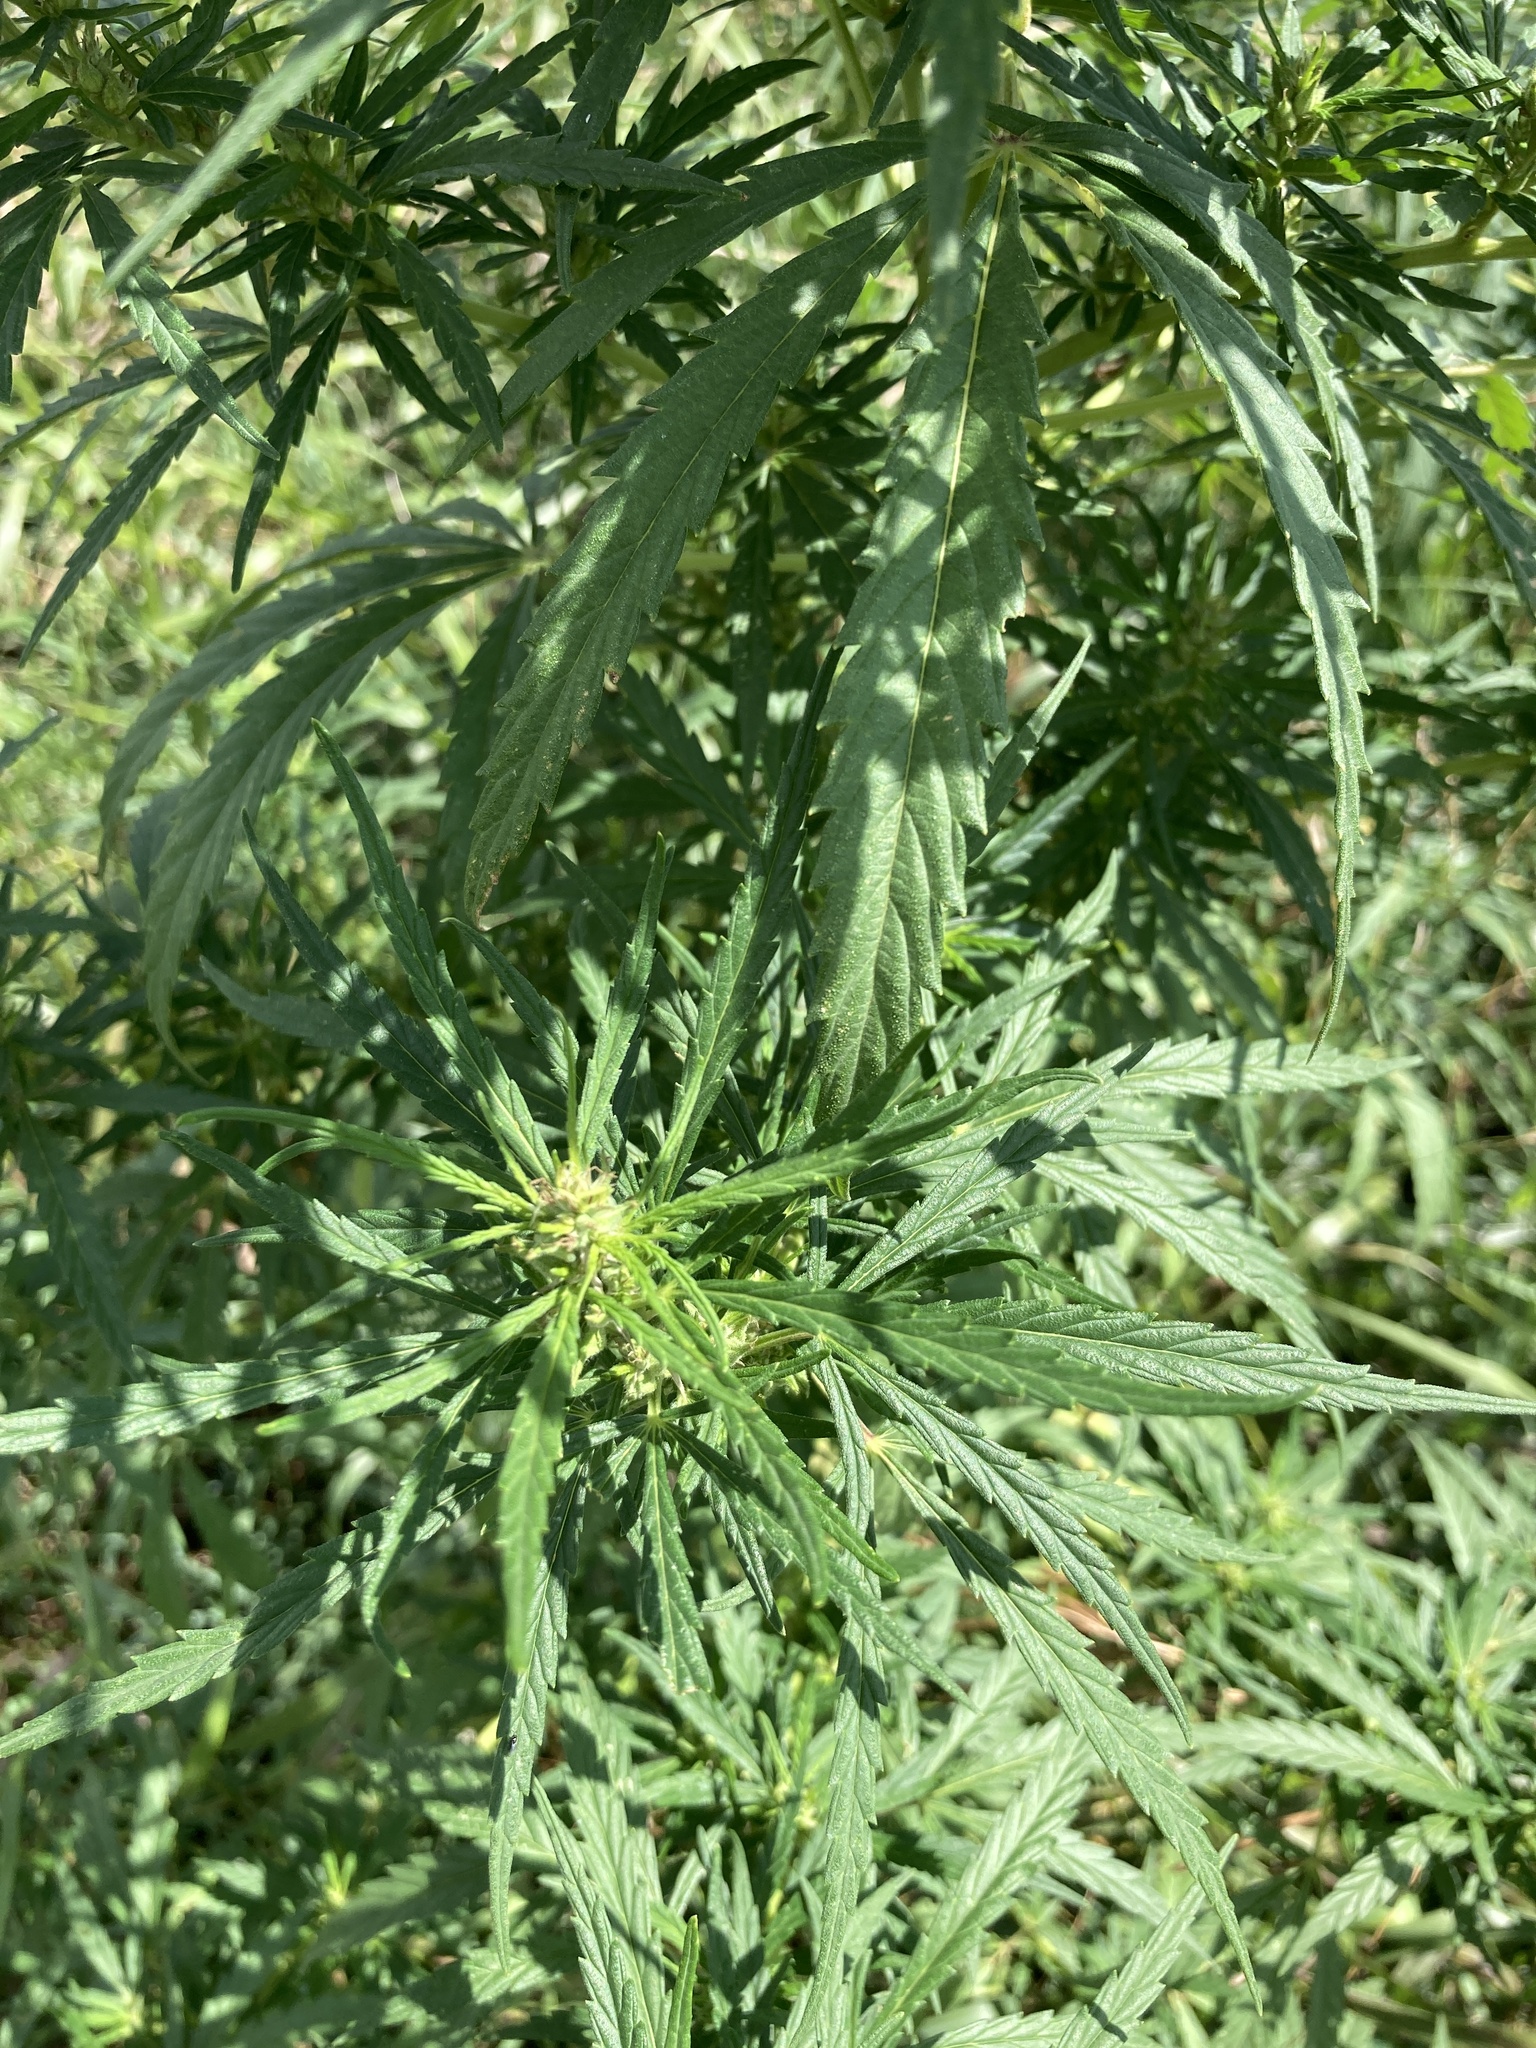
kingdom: Plantae
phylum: Tracheophyta
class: Magnoliopsida
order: Rosales
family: Cannabaceae
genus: Cannabis
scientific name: Cannabis sativa
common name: Hemp
